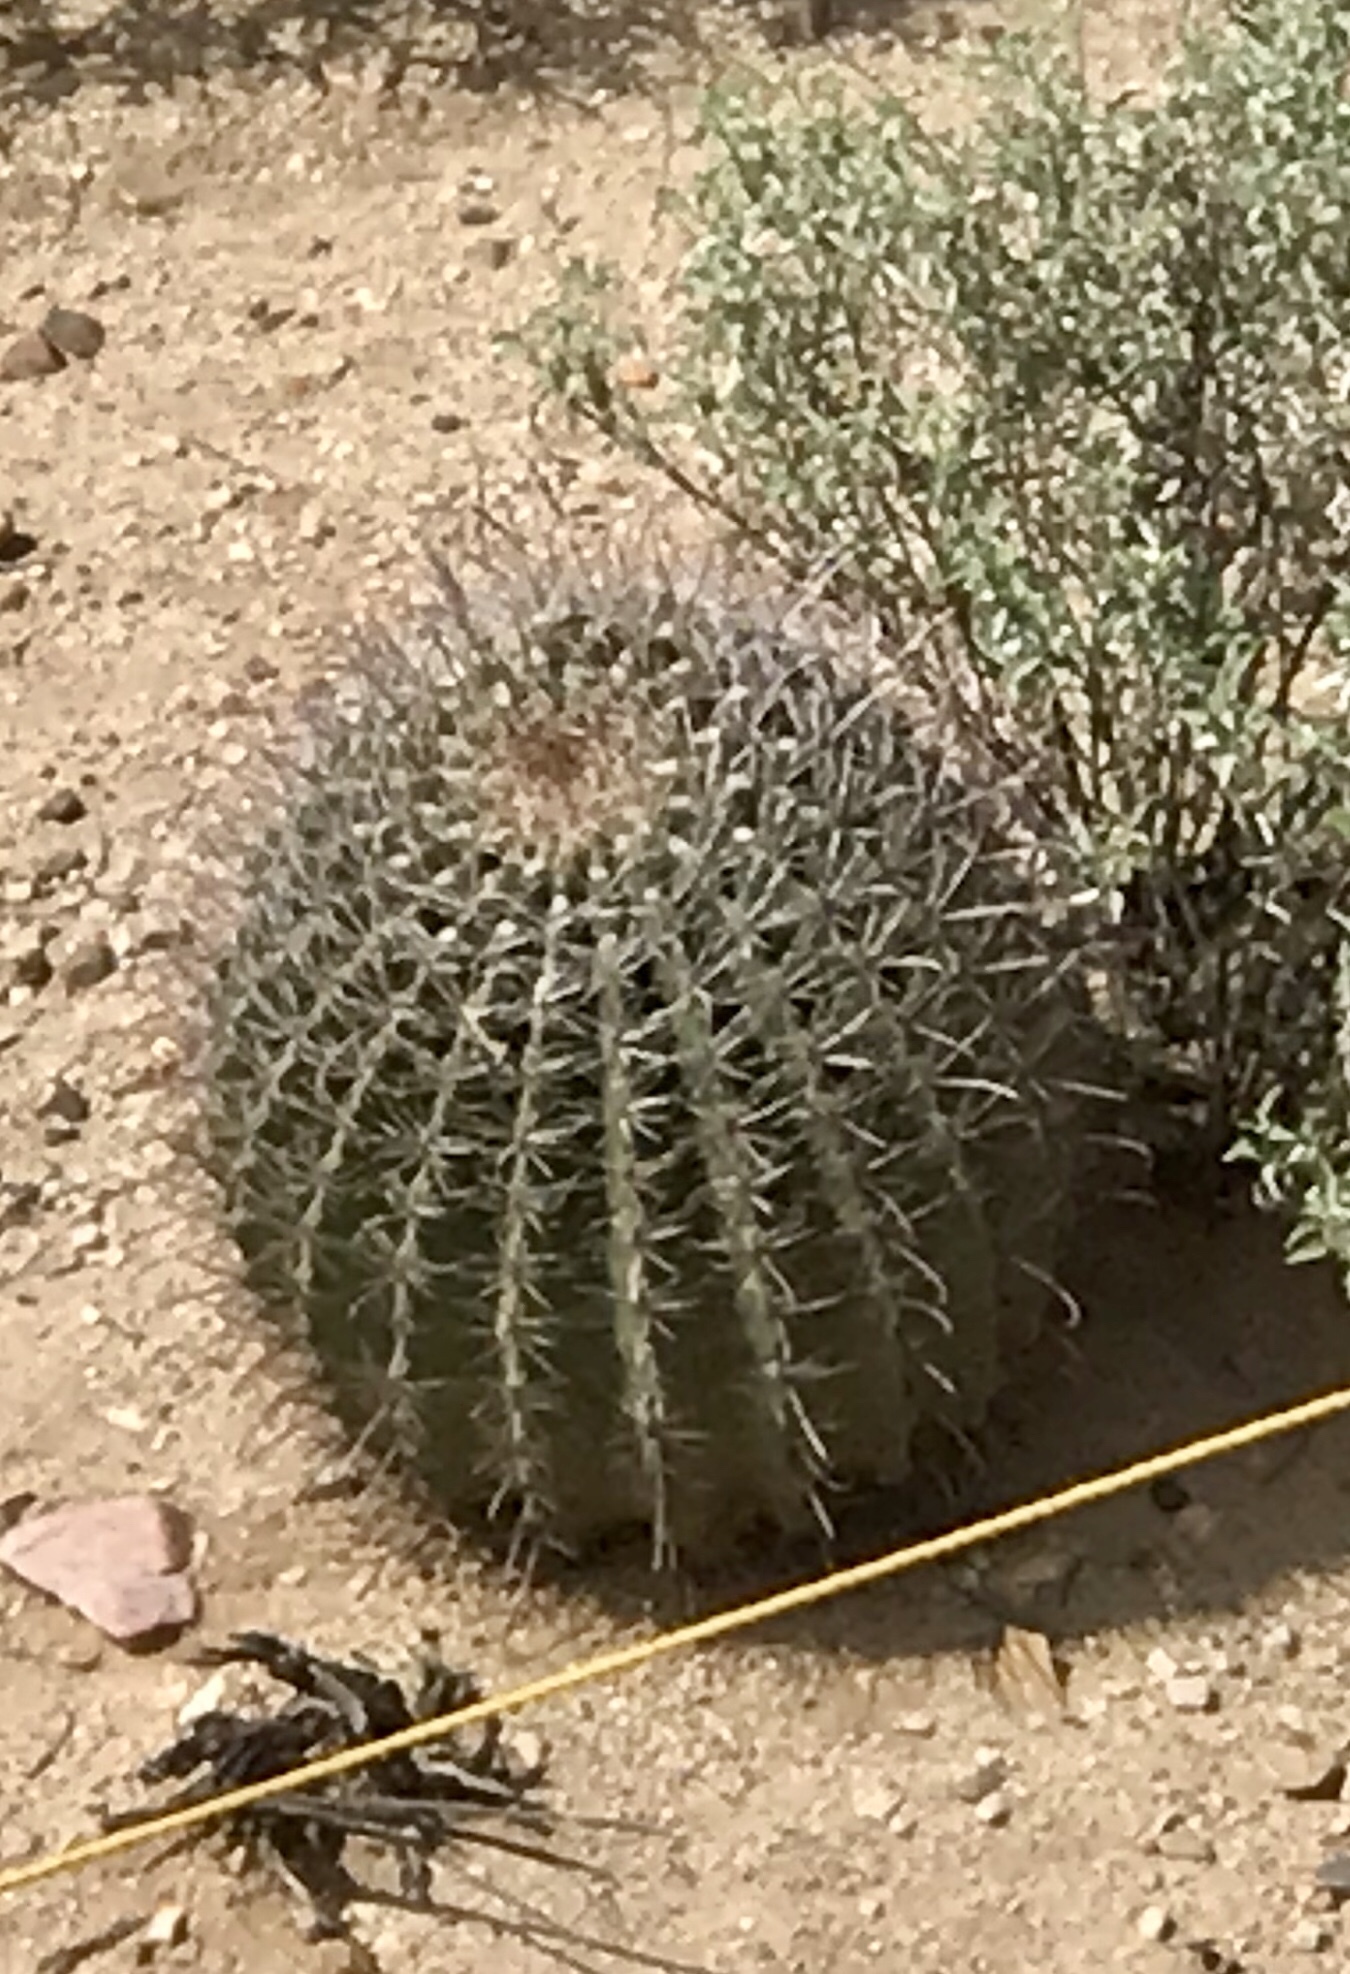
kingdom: Plantae
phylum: Tracheophyta
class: Magnoliopsida
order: Caryophyllales
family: Cactaceae
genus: Ferocactus
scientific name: Ferocactus wislizeni
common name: Candy barrel cactus
